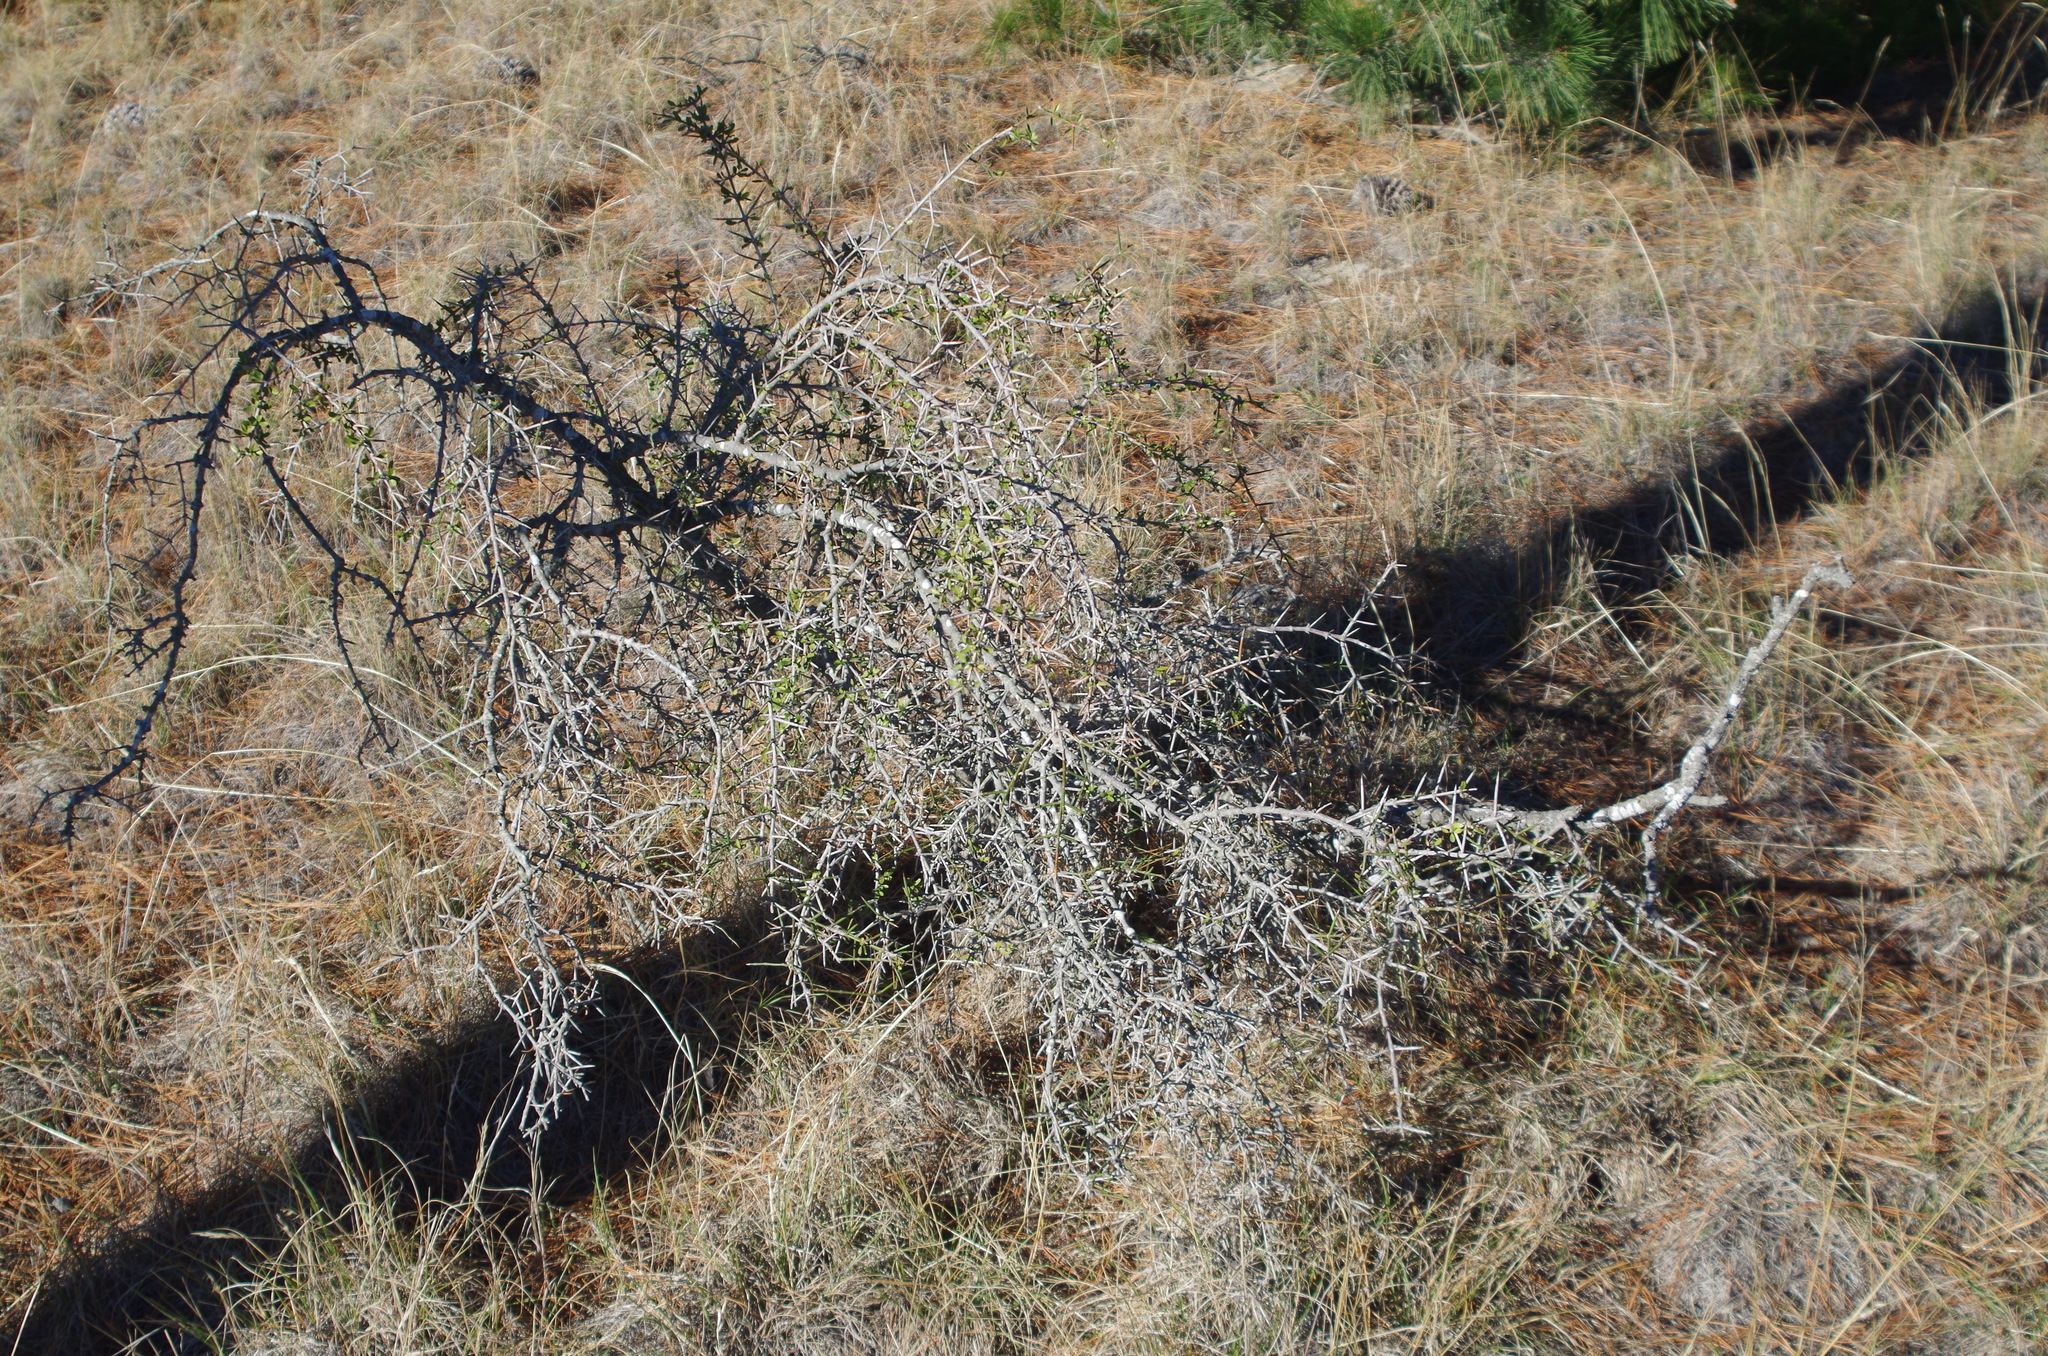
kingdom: Plantae
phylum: Tracheophyta
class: Magnoliopsida
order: Rosales
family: Rhamnaceae
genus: Discaria
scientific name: Discaria toumatou
